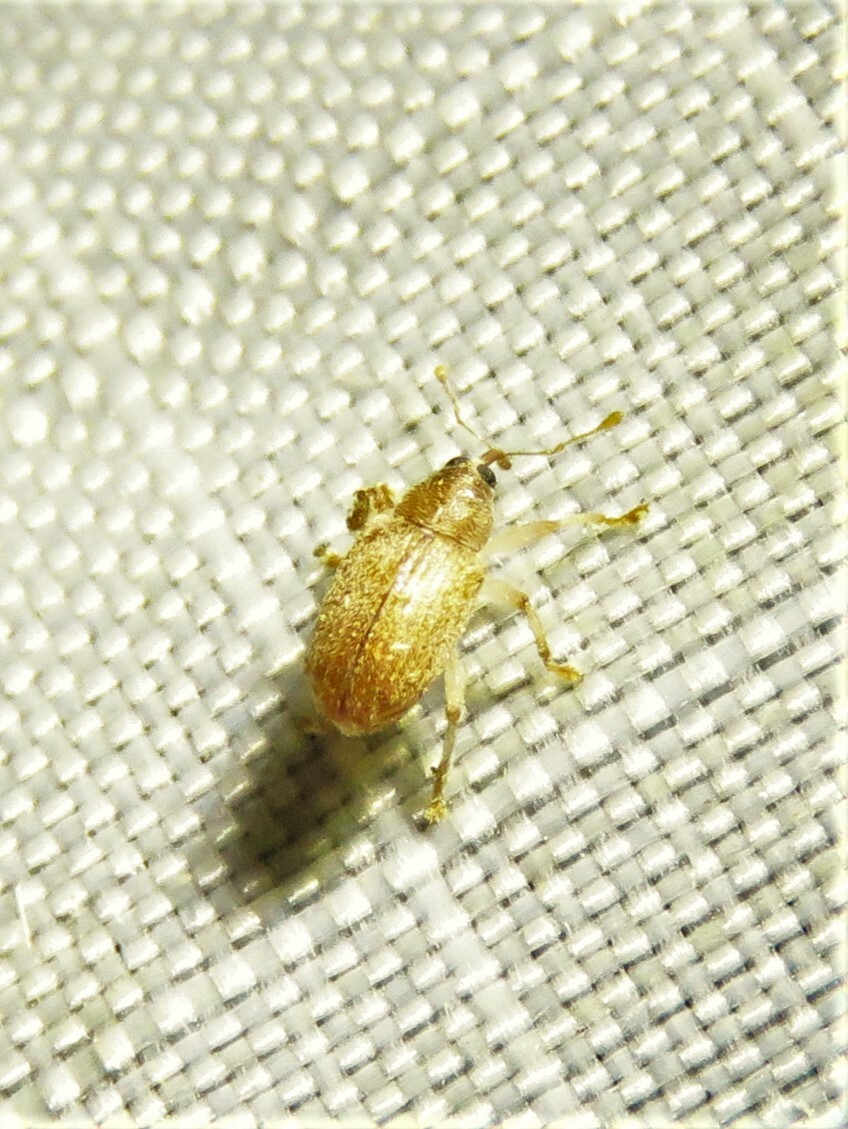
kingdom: Animalia
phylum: Arthropoda
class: Insecta
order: Coleoptera
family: Curculionidae
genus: Lignyodes
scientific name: Lignyodes helvolus
